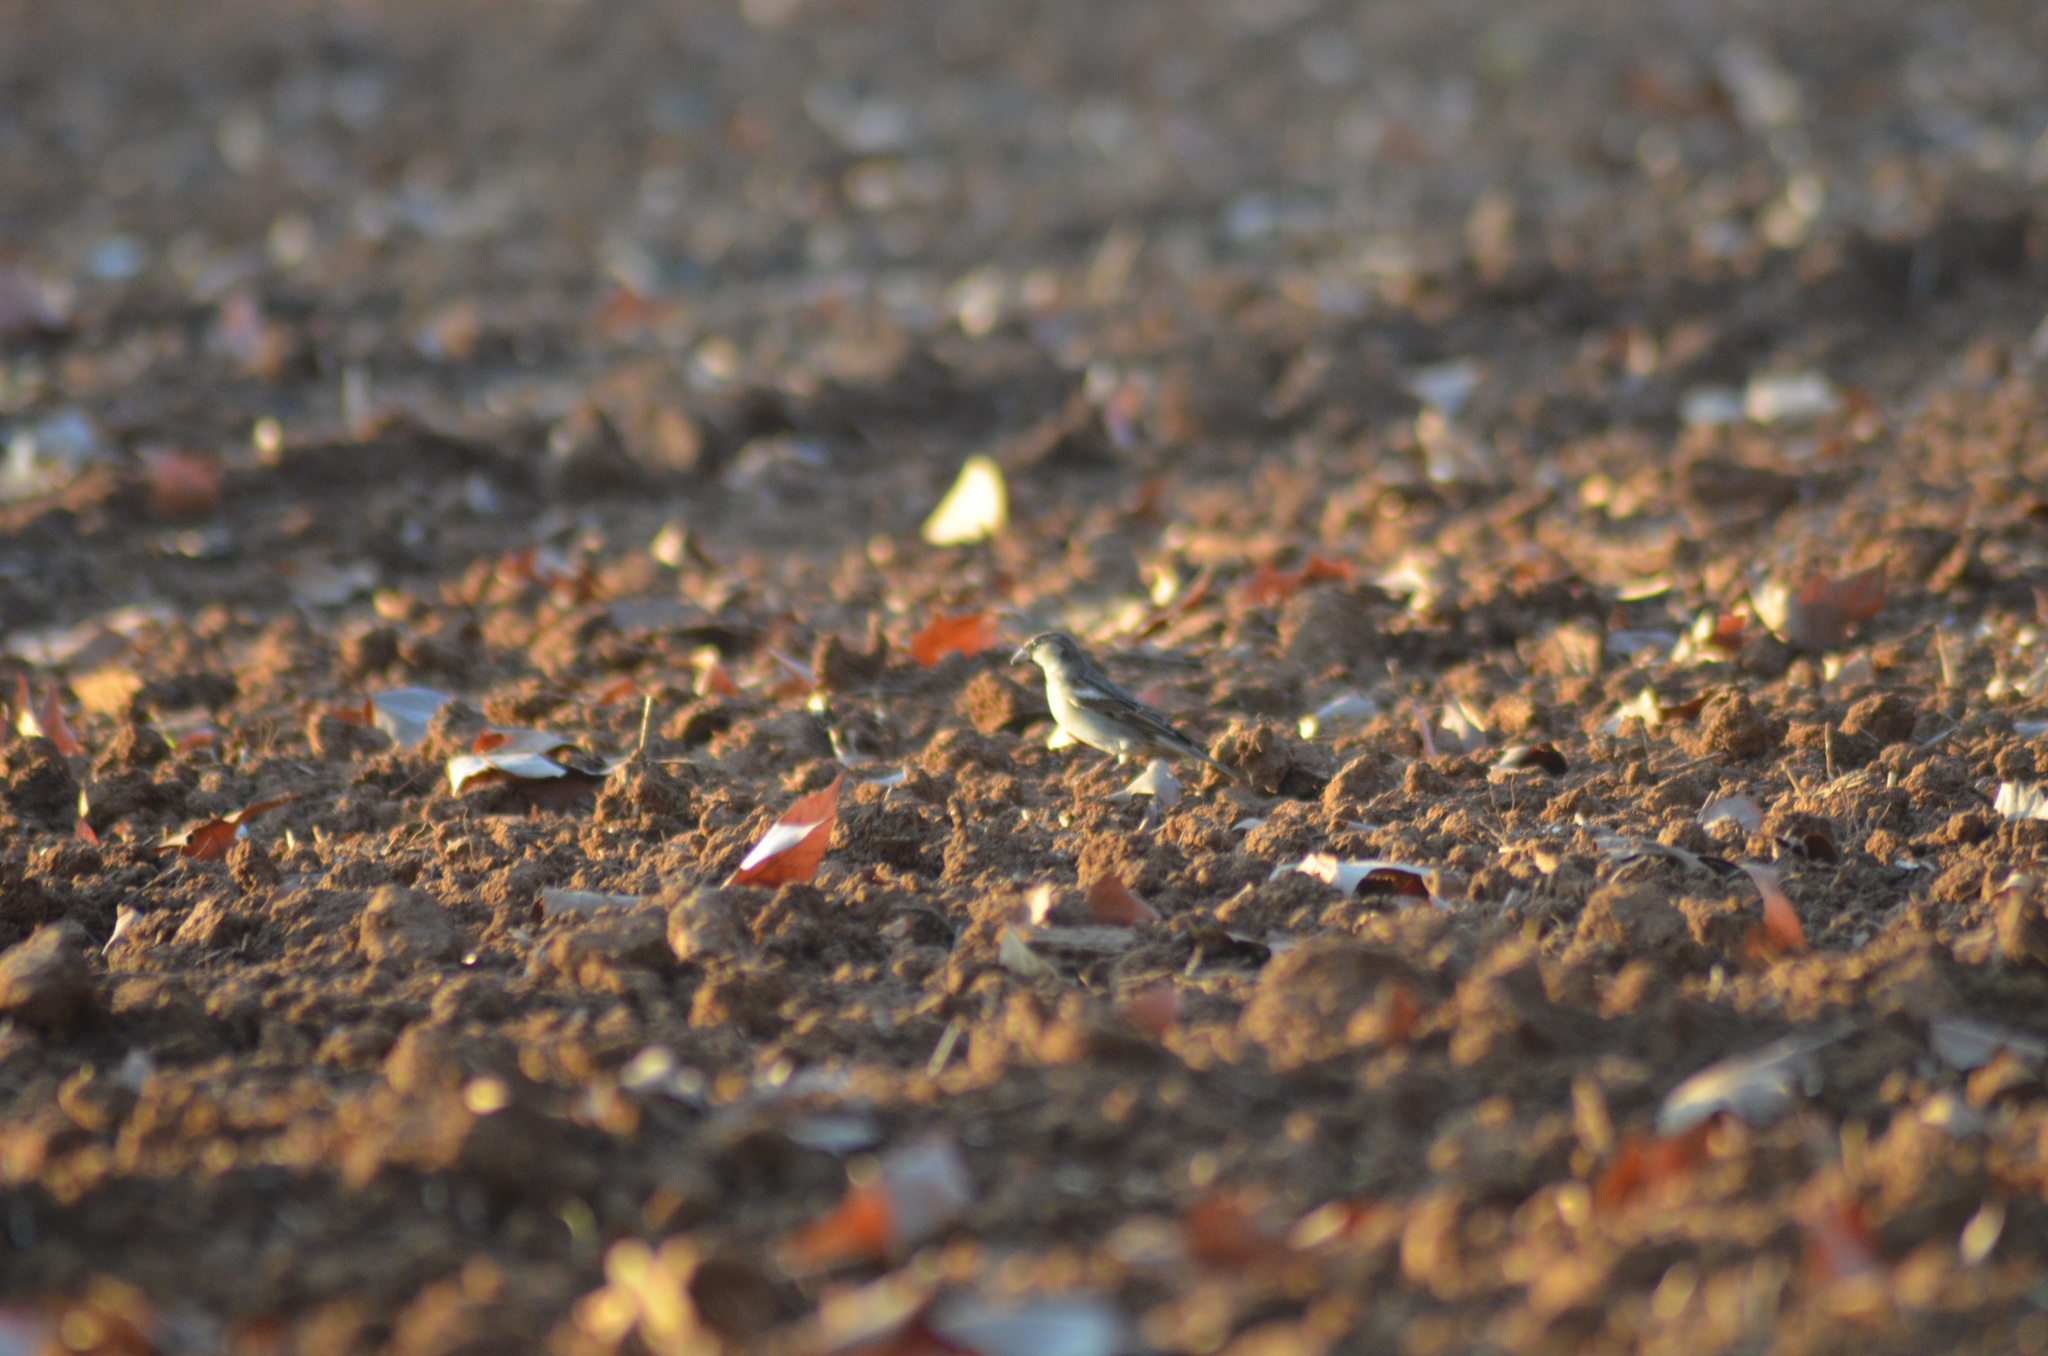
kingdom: Animalia
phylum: Chordata
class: Aves
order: Passeriformes
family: Passeridae
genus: Passer
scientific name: Passer domesticus
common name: House sparrow
